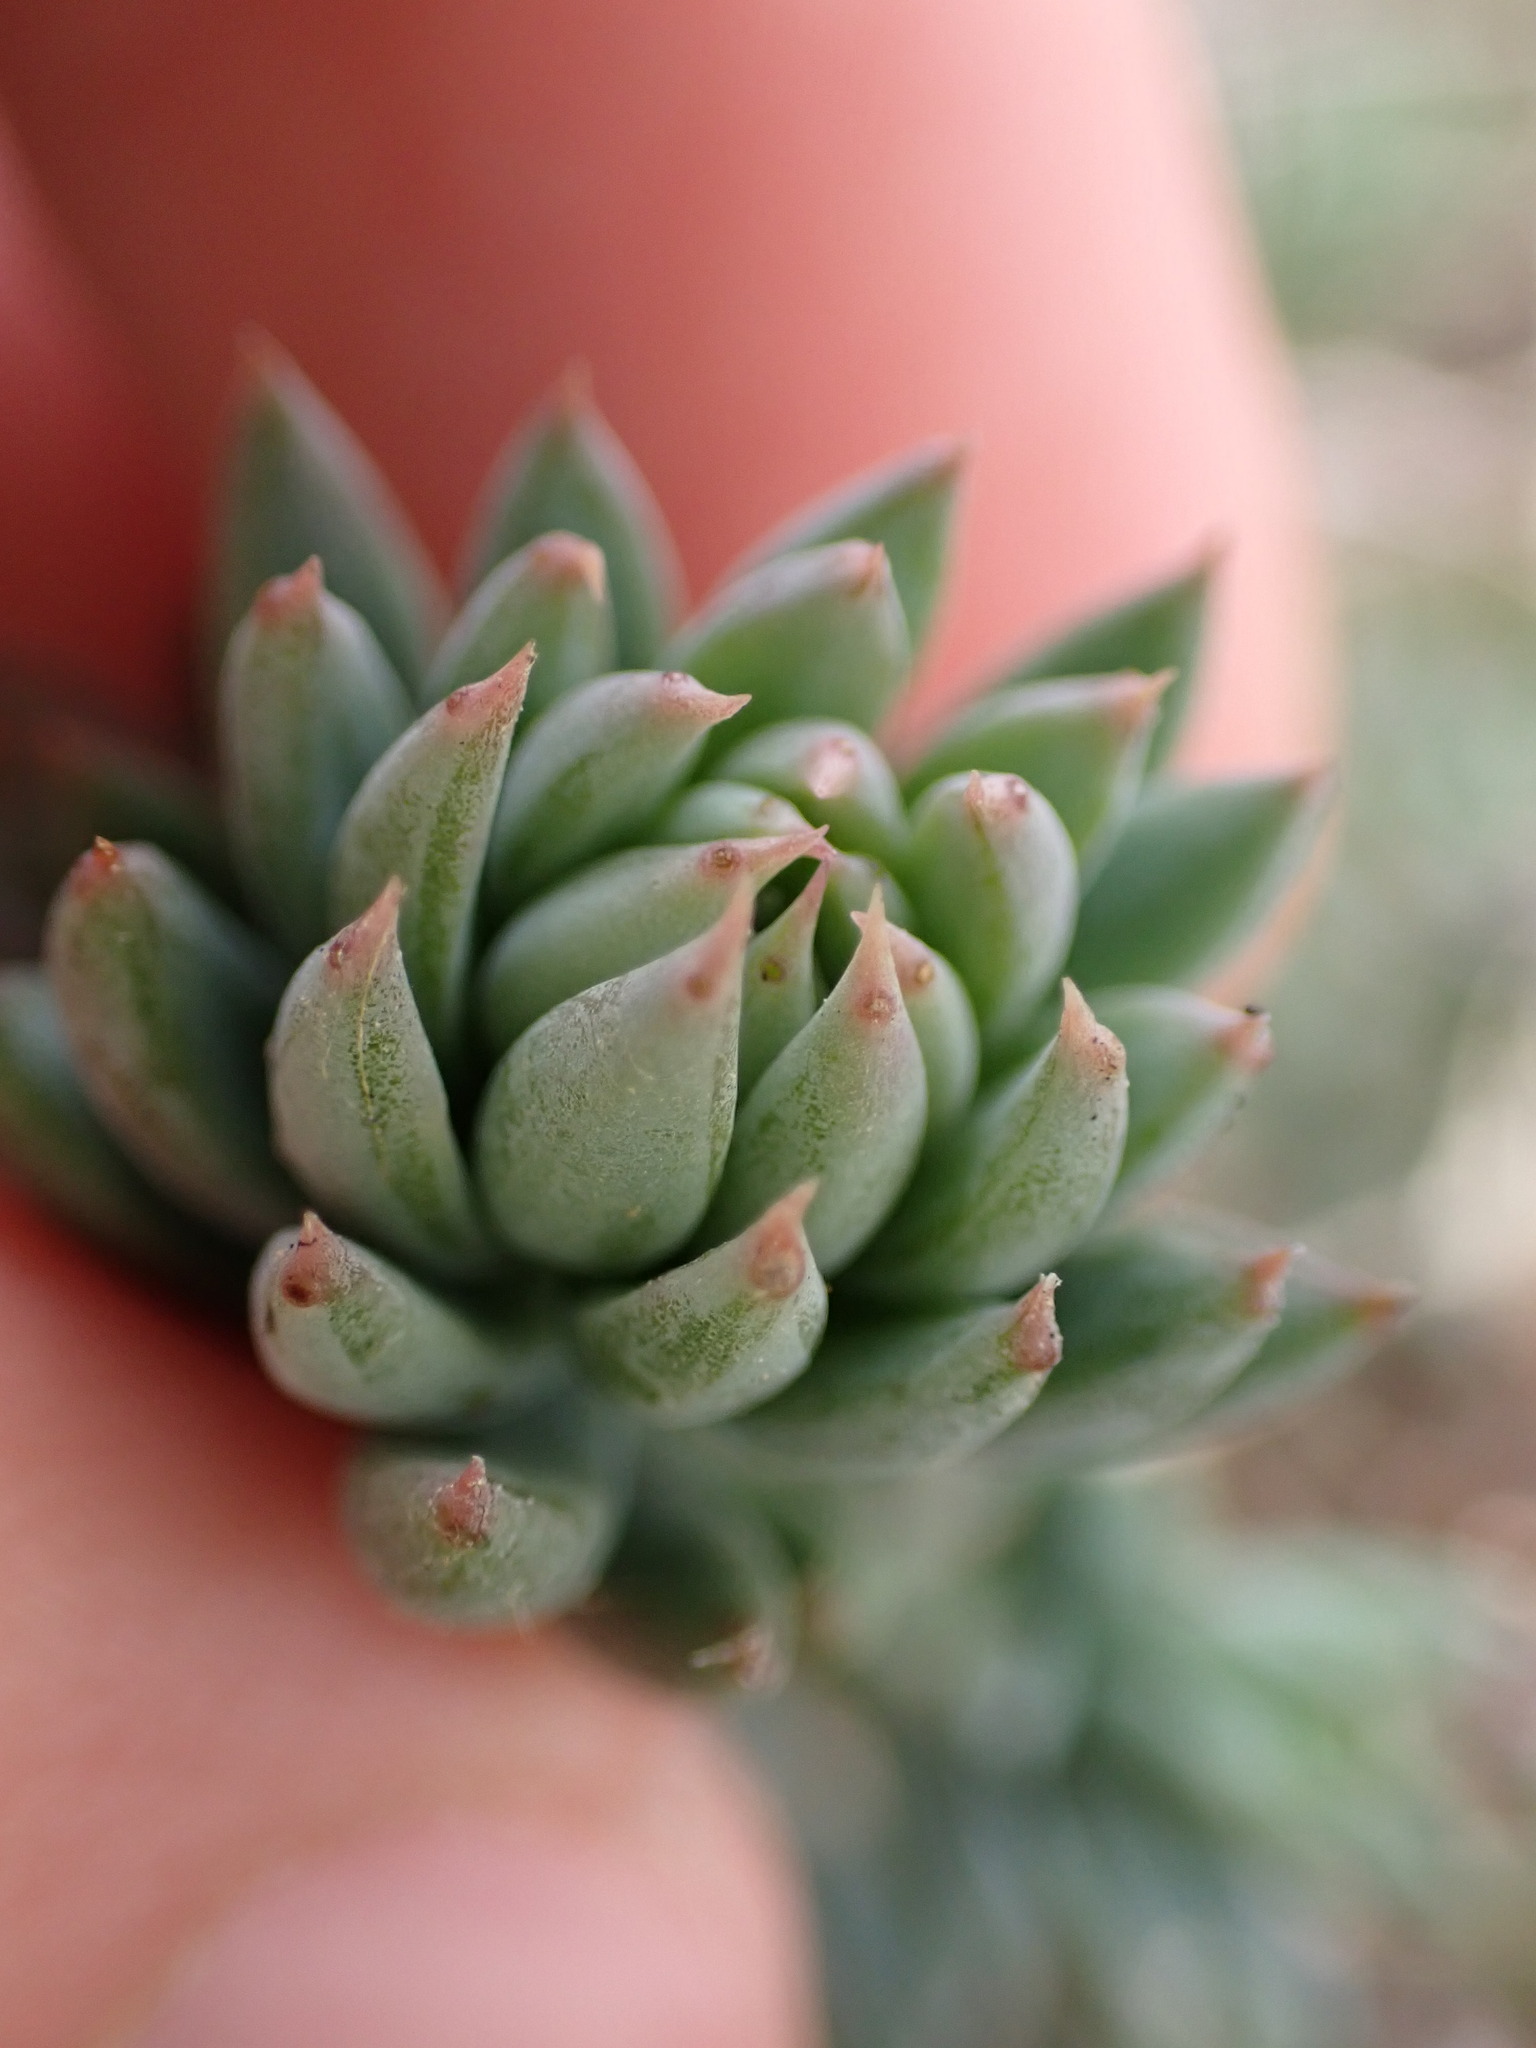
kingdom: Plantae
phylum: Tracheophyta
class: Magnoliopsida
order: Saxifragales
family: Crassulaceae
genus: Petrosedum
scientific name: Petrosedum sediforme
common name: Pale stonecrop
